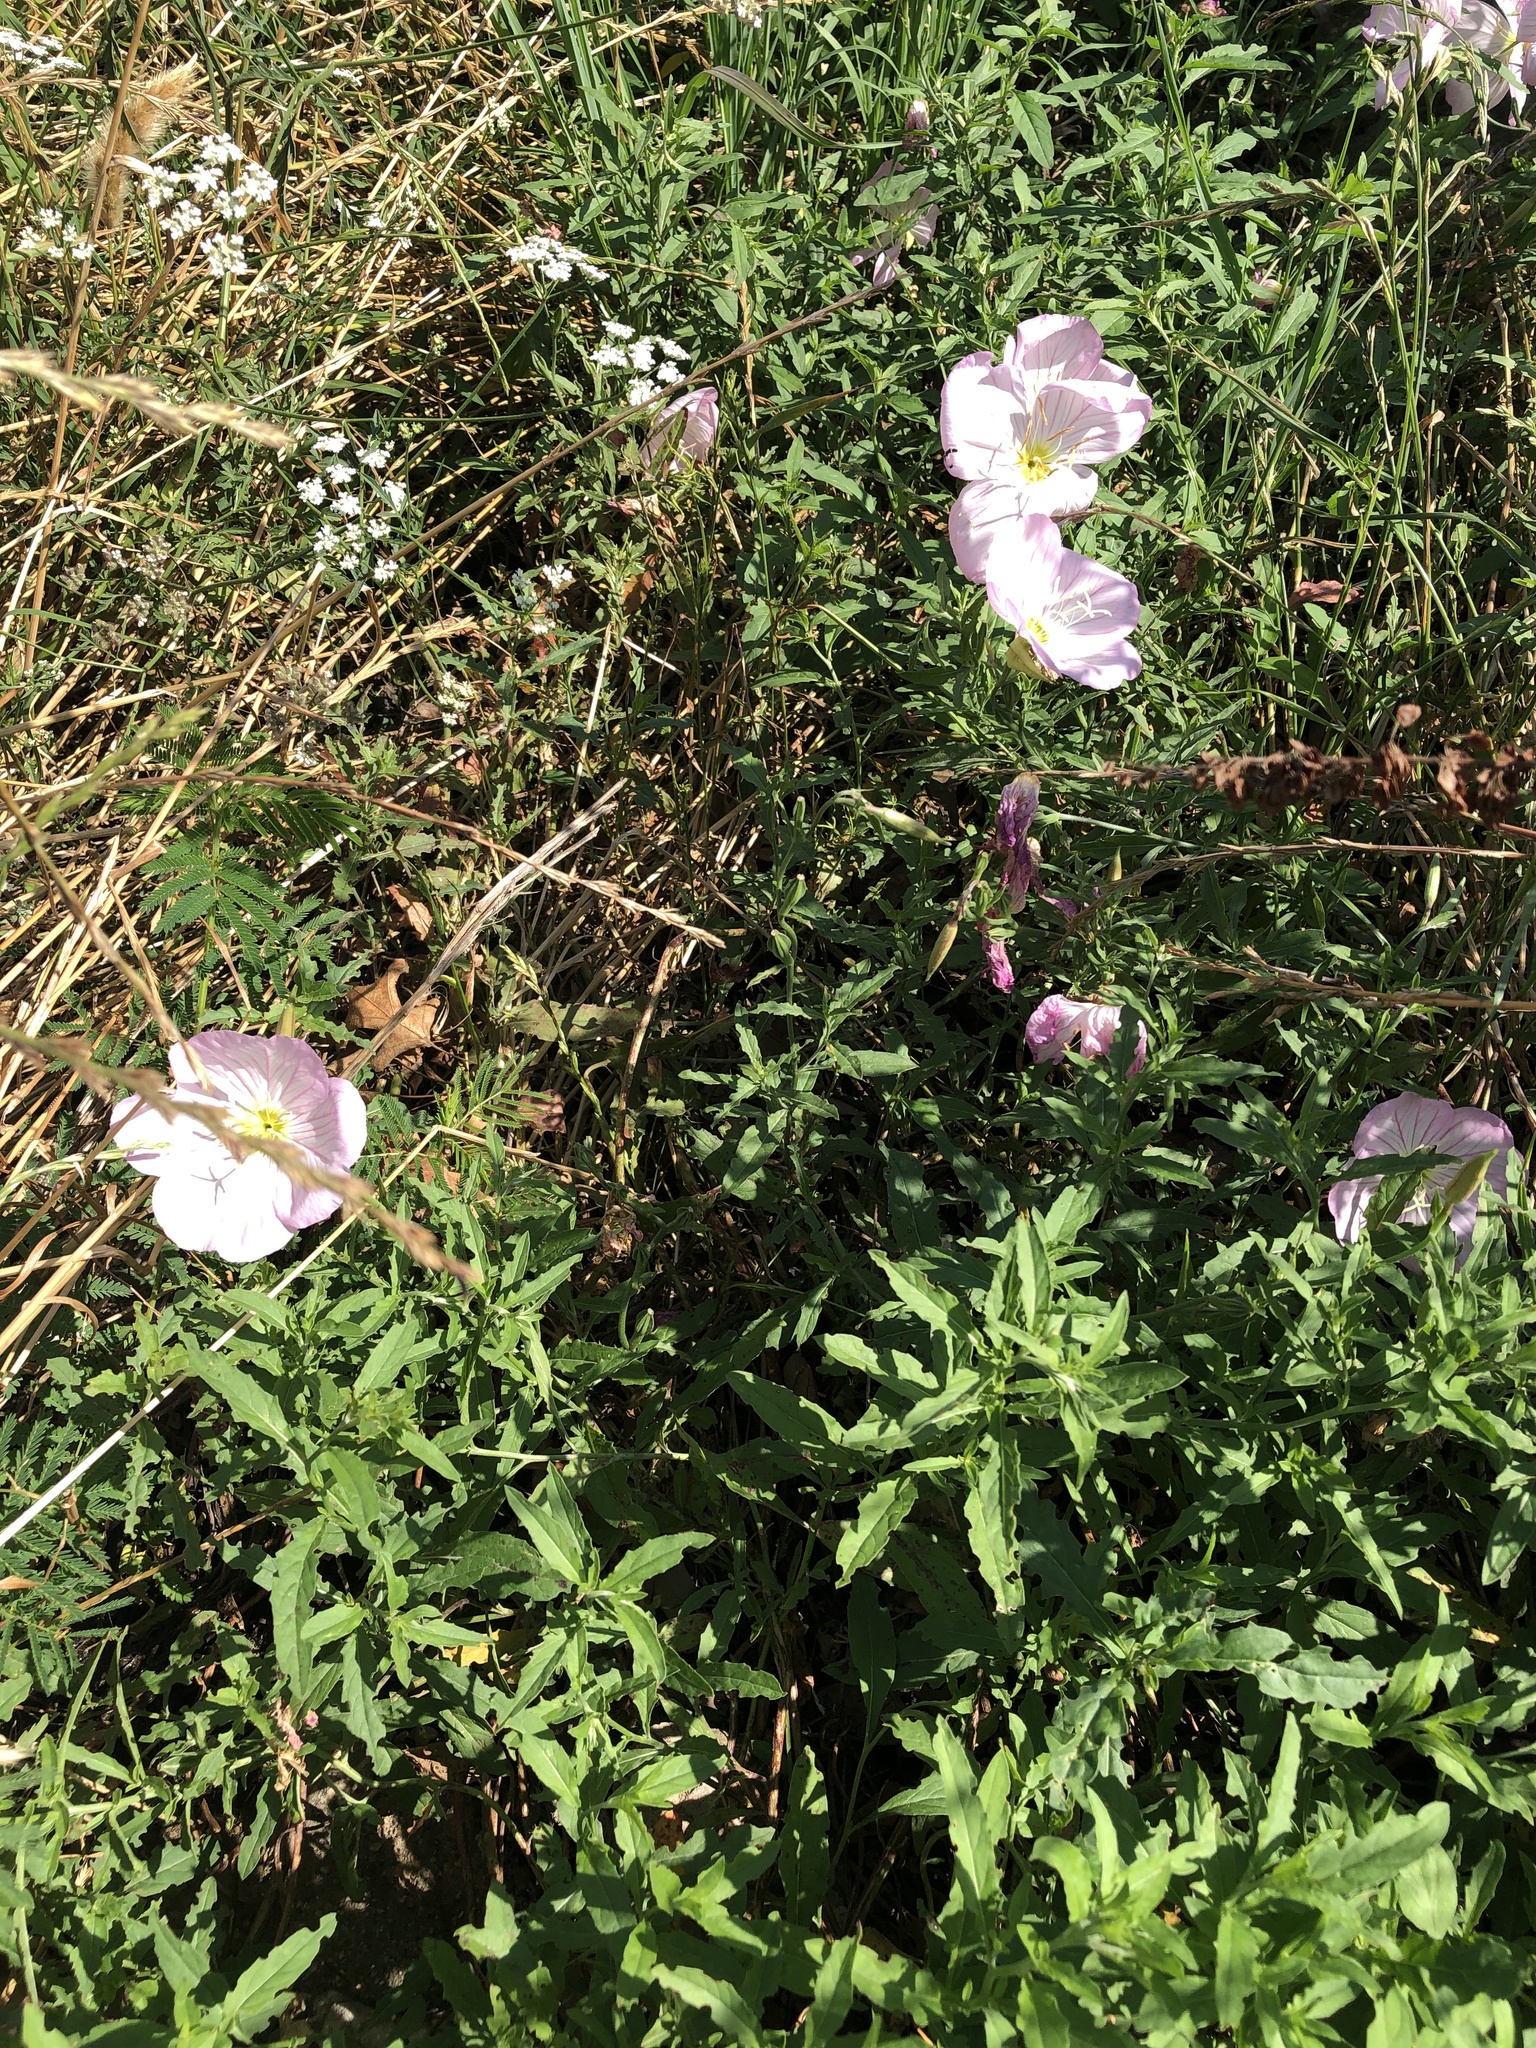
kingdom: Plantae
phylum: Tracheophyta
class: Magnoliopsida
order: Myrtales
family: Onagraceae
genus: Oenothera
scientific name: Oenothera speciosa
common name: White evening-primrose
